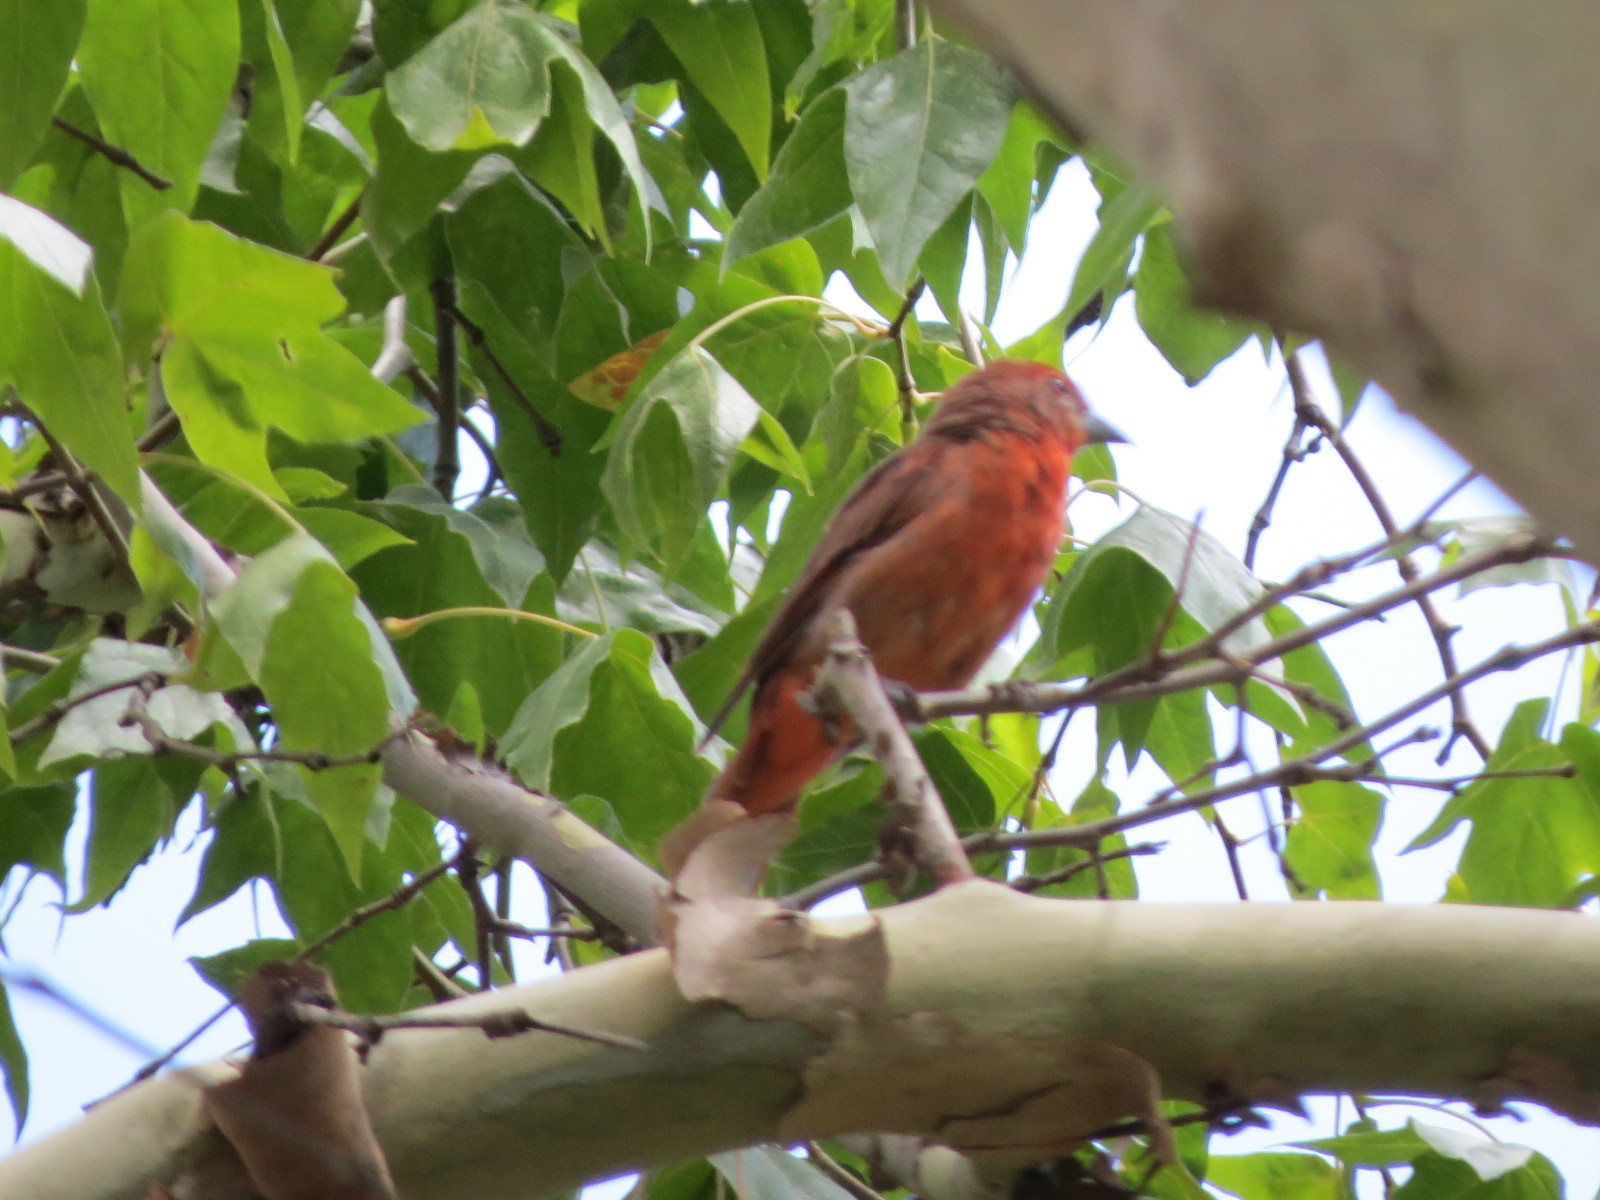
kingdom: Animalia
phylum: Chordata
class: Aves
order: Passeriformes
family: Cardinalidae
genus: Piranga
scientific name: Piranga flava
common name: Red tanager
